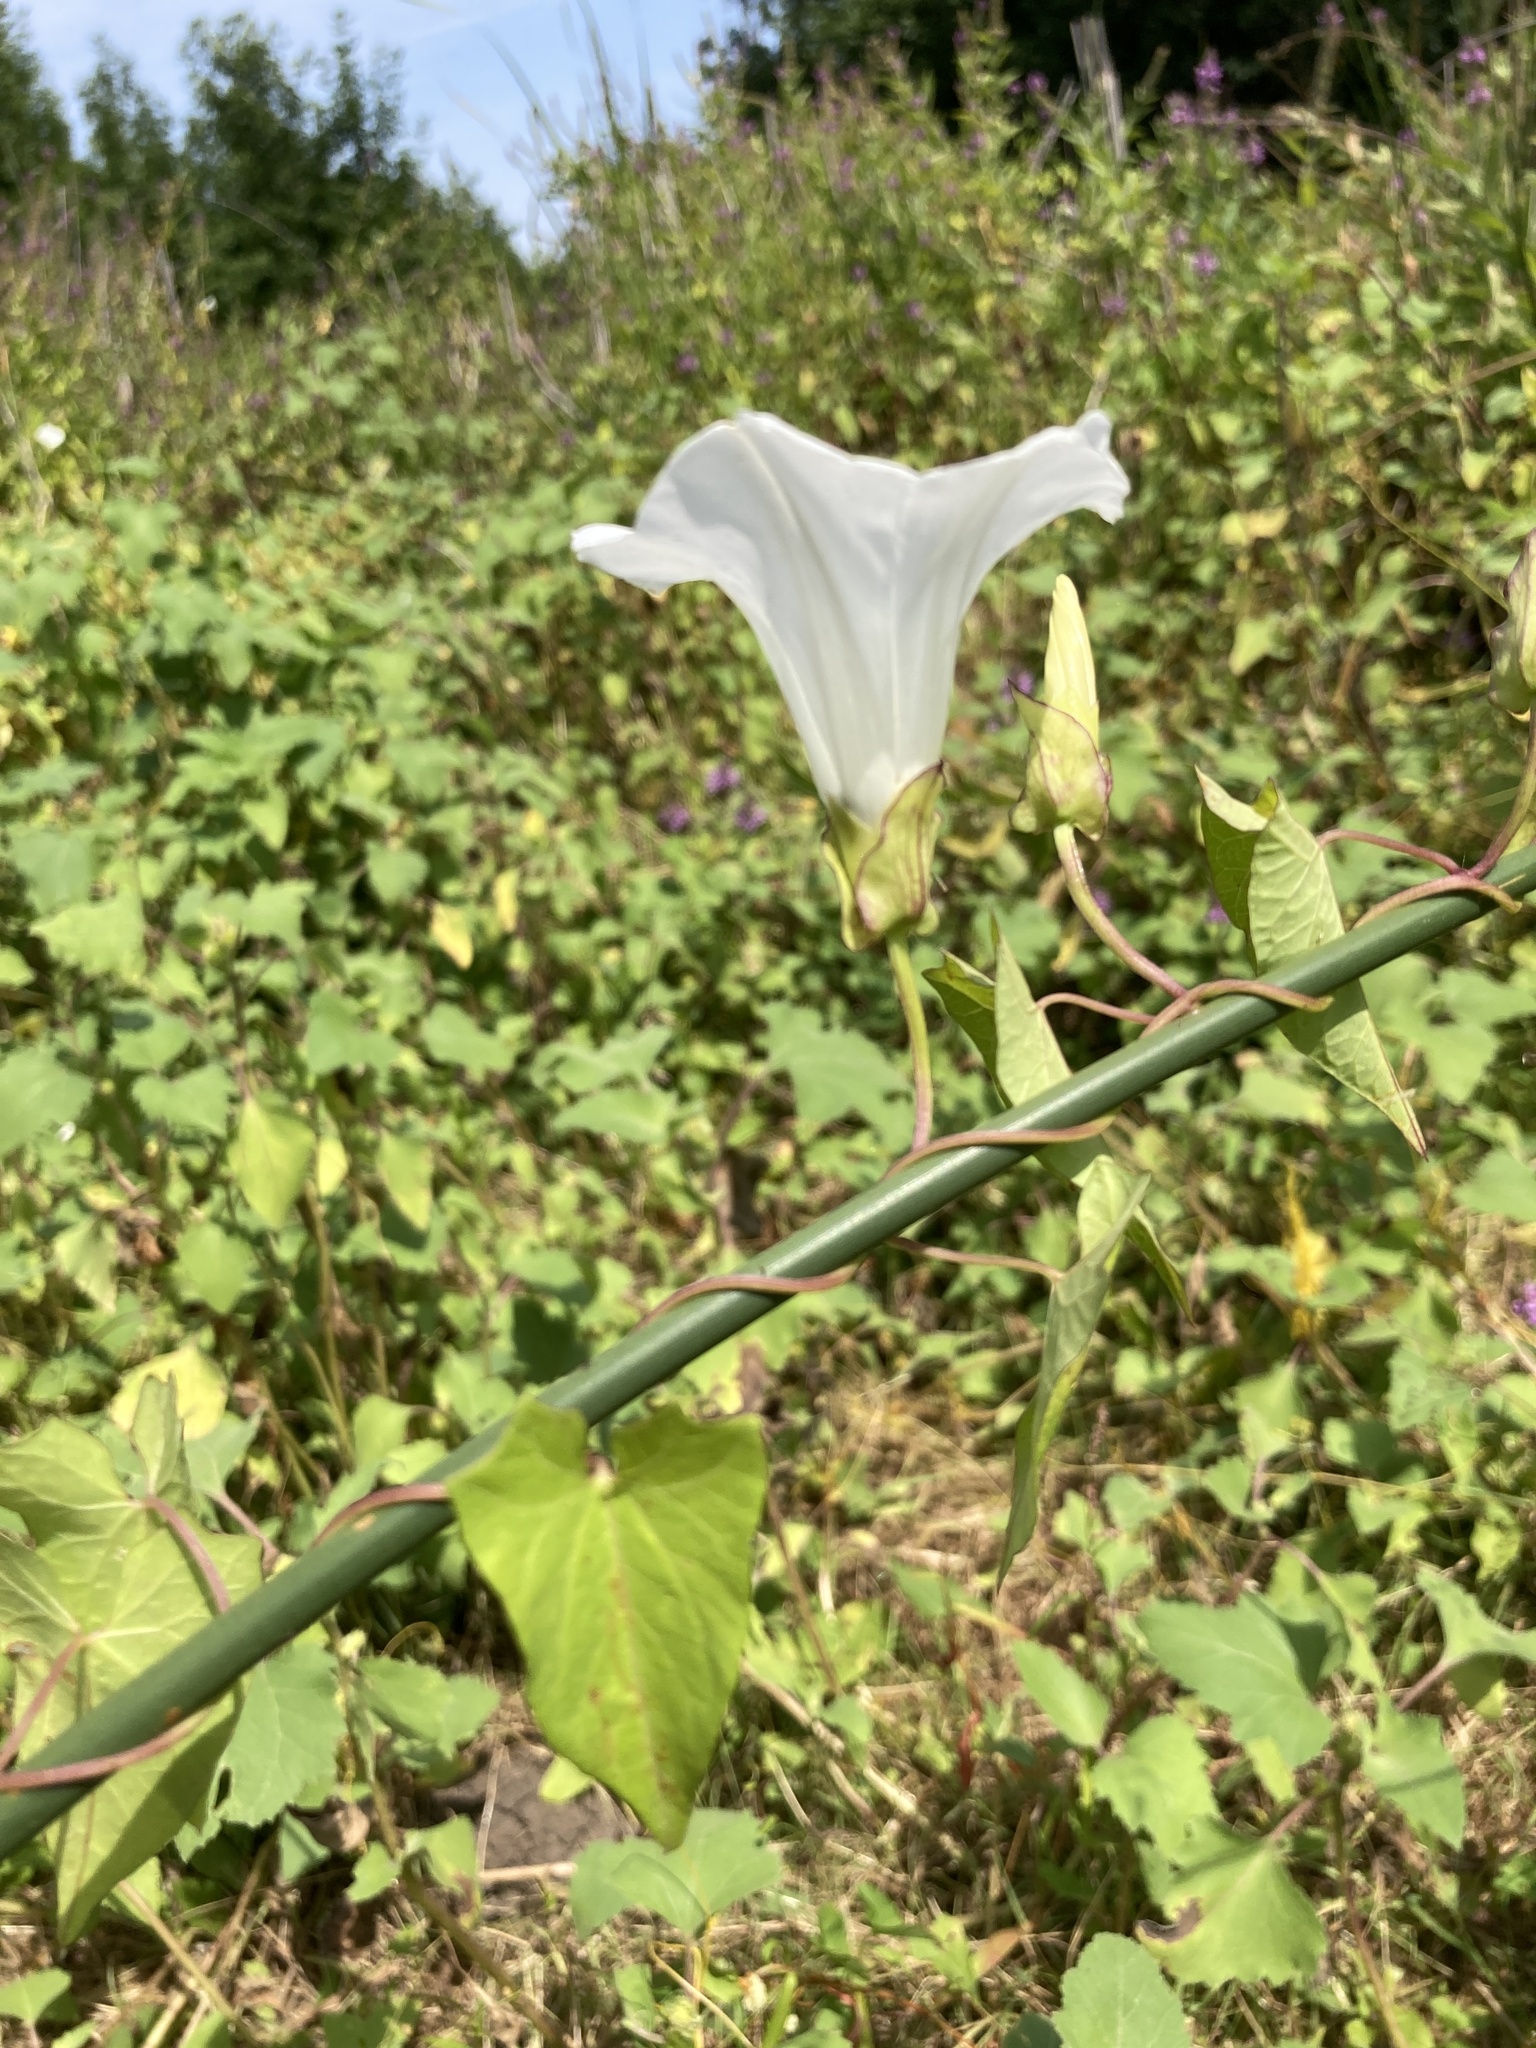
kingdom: Plantae
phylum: Tracheophyta
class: Magnoliopsida
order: Solanales
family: Convolvulaceae
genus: Calystegia
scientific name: Calystegia sepium
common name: Hedge bindweed
